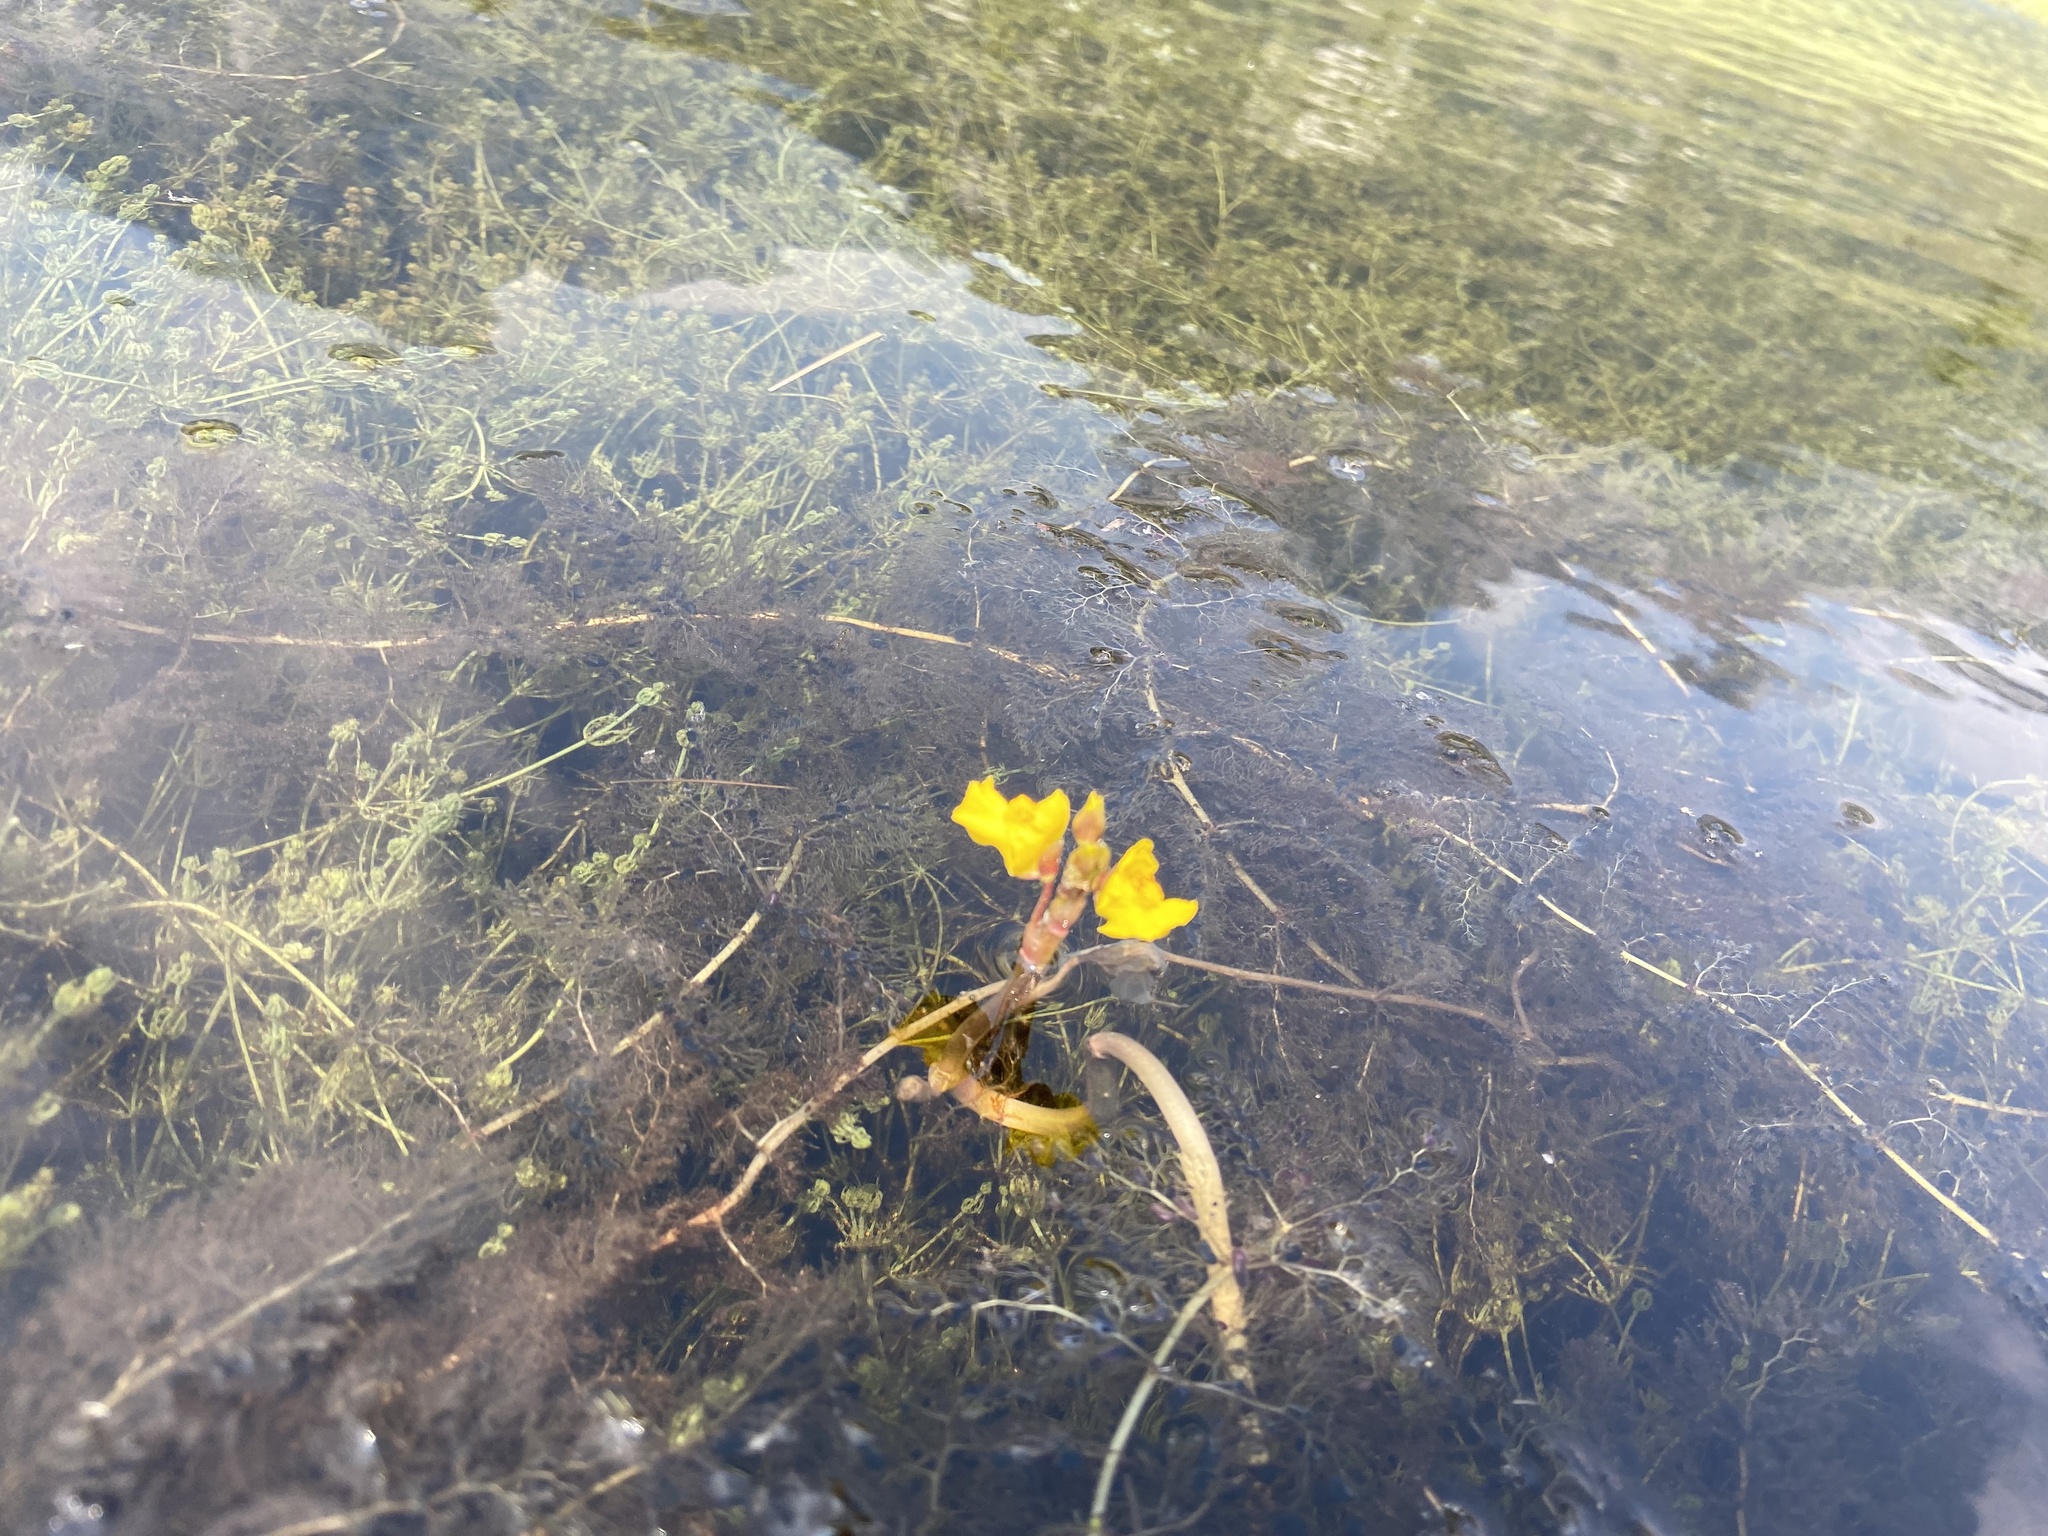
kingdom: Plantae
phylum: Tracheophyta
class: Magnoliopsida
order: Lamiales
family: Lentibulariaceae
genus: Utricularia
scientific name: Utricularia macrorhiza
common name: Common bladderwort
